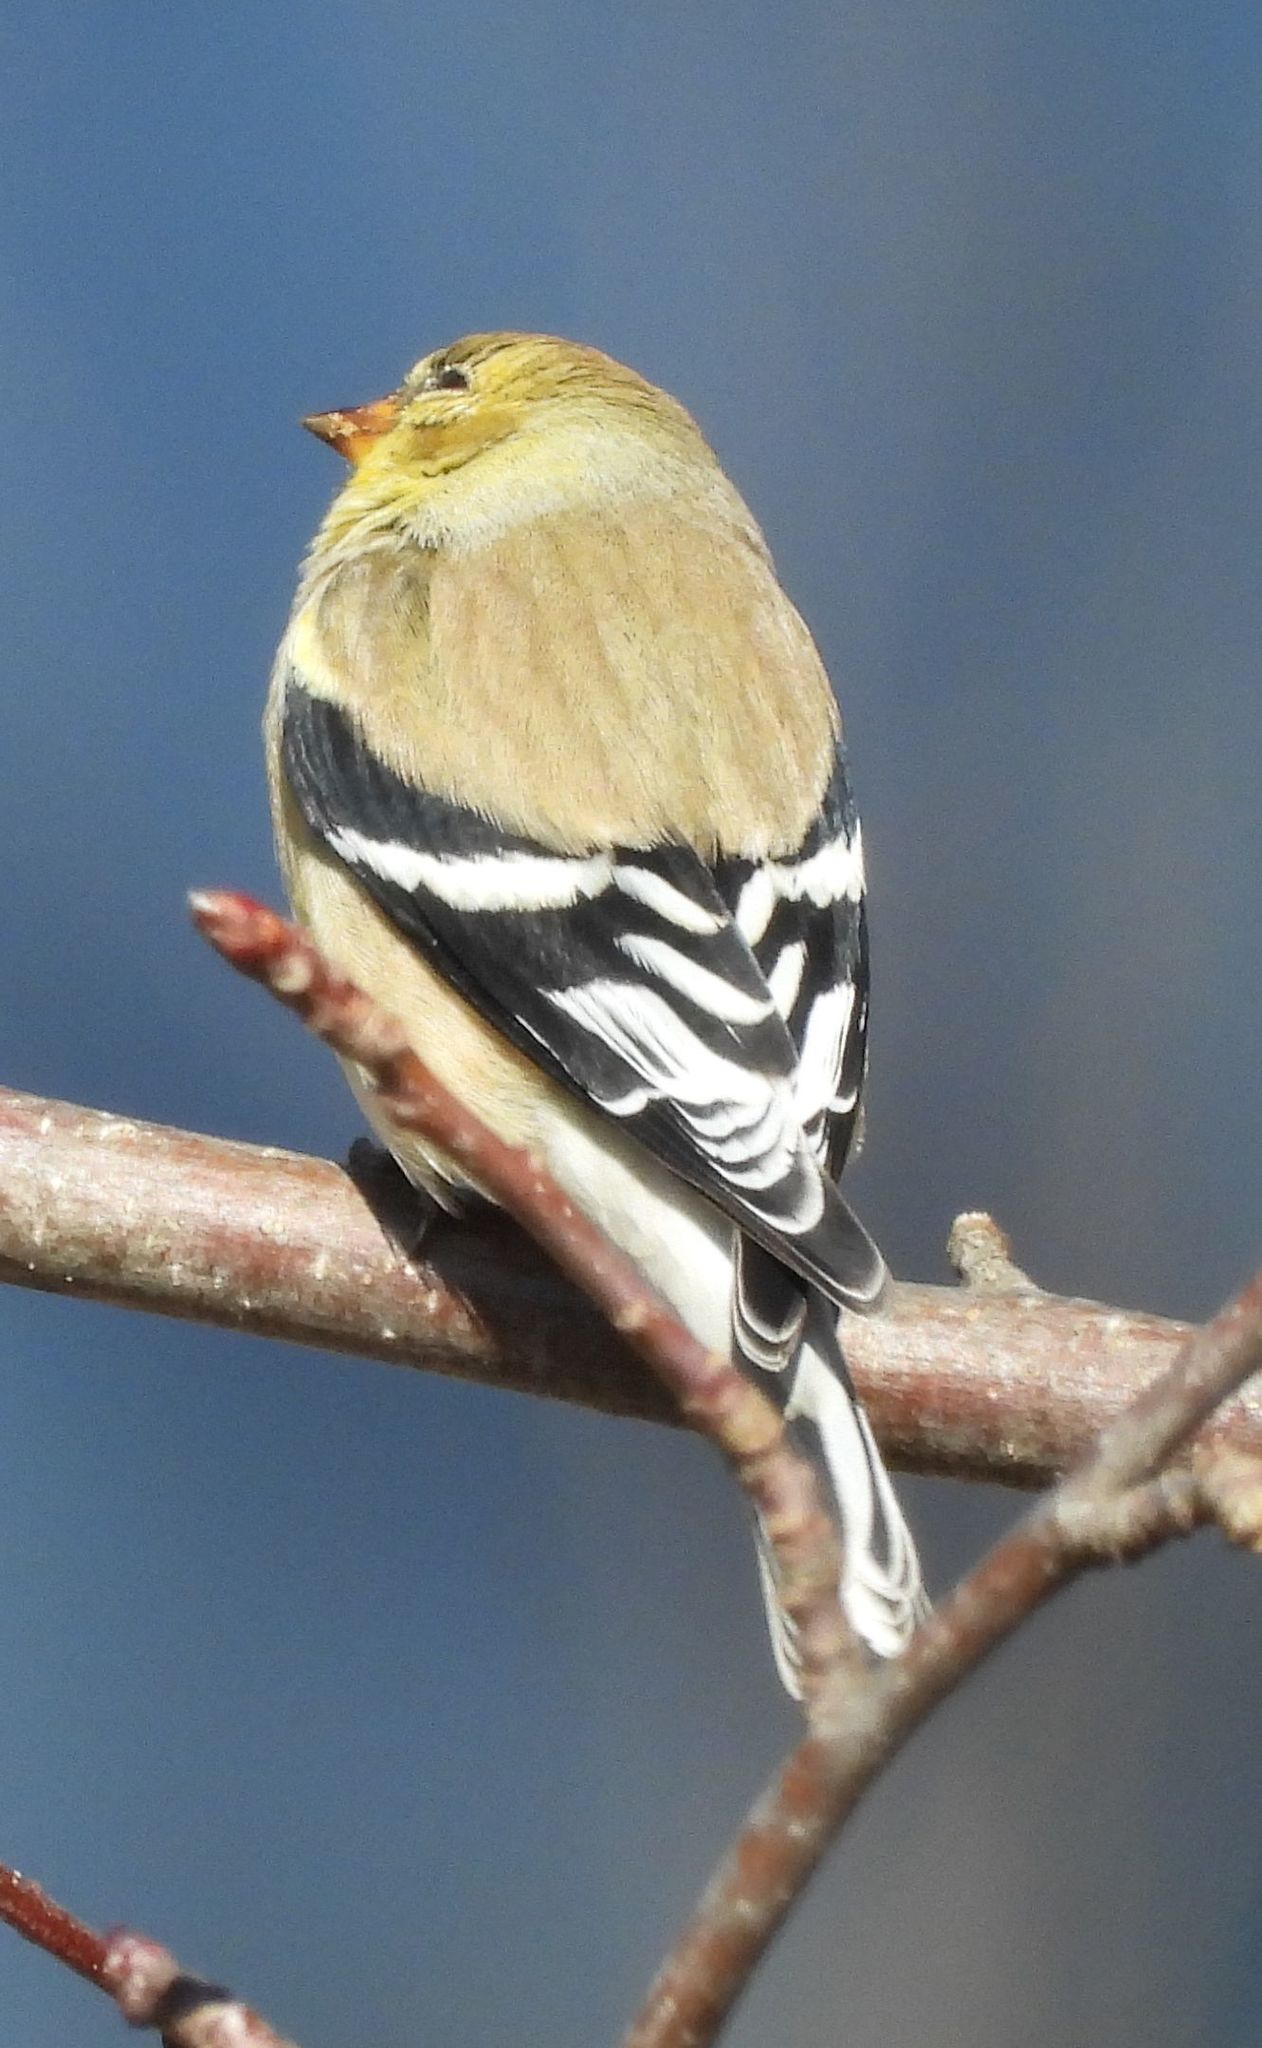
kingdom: Animalia
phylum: Chordata
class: Aves
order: Passeriformes
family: Fringillidae
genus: Spinus
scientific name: Spinus tristis
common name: American goldfinch
